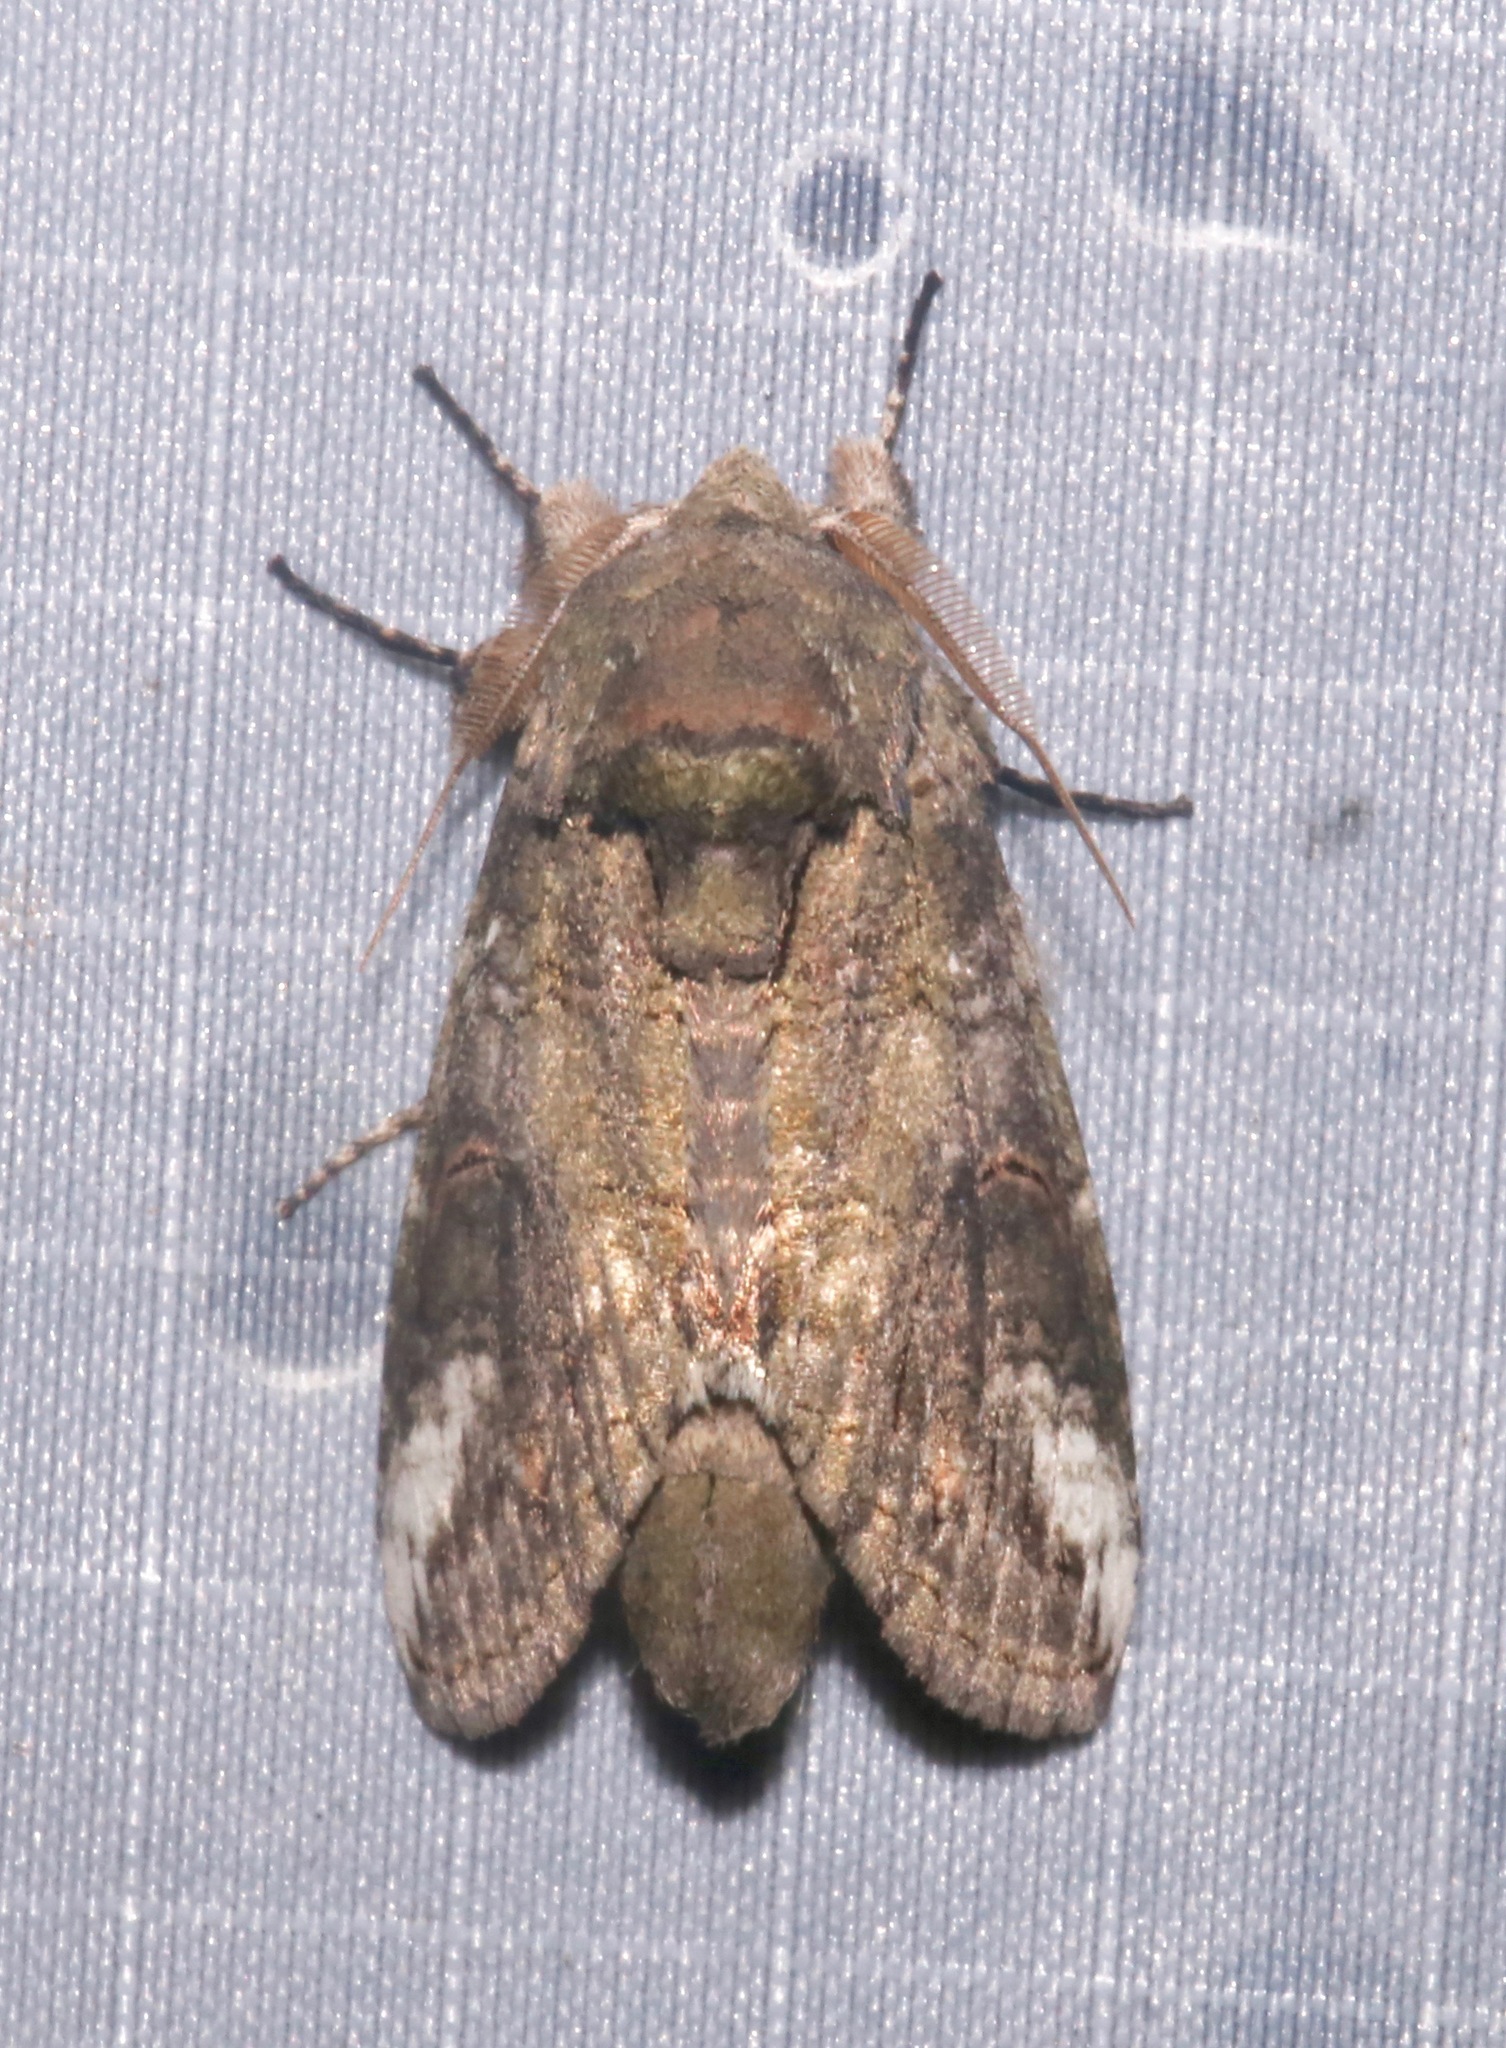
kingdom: Animalia
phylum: Arthropoda
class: Insecta
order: Lepidoptera
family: Notodontidae
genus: Heterocampa
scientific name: Heterocampa obliqua
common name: Oblique heterocampa
